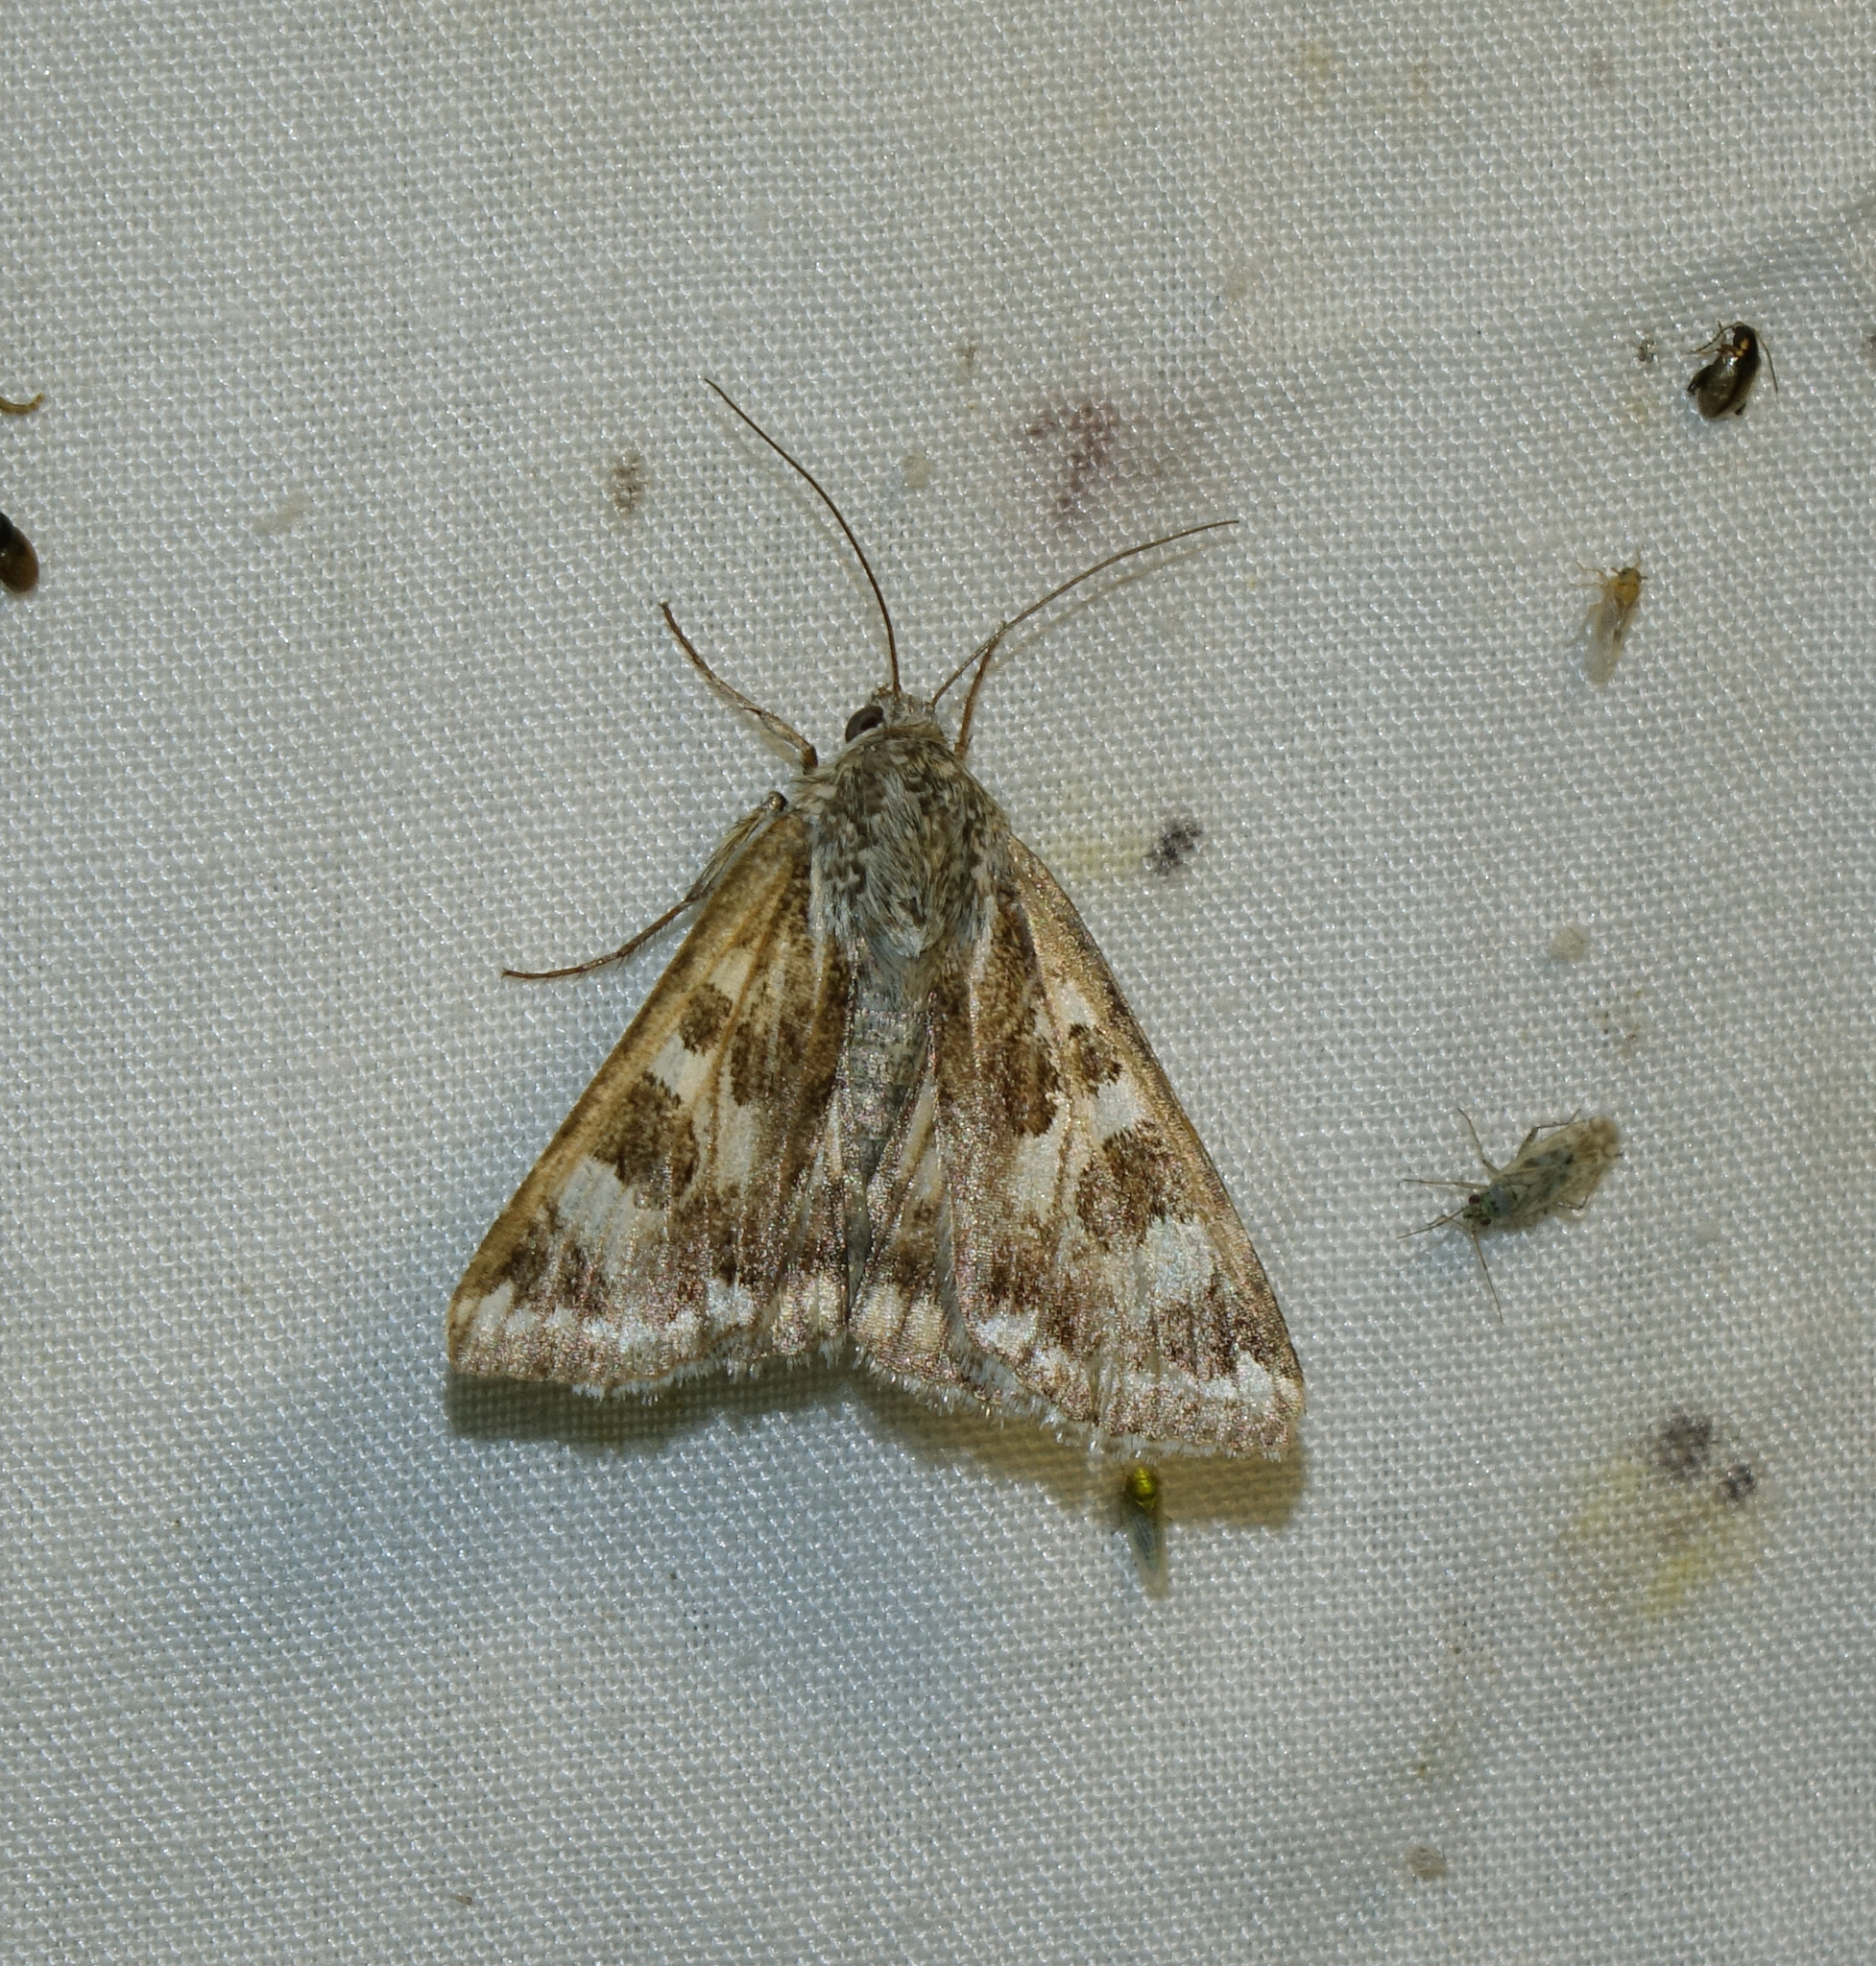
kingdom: Animalia
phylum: Arthropoda
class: Insecta
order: Lepidoptera
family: Noctuidae
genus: Protoschinia
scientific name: Protoschinia scutosa
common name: Spotted clover
